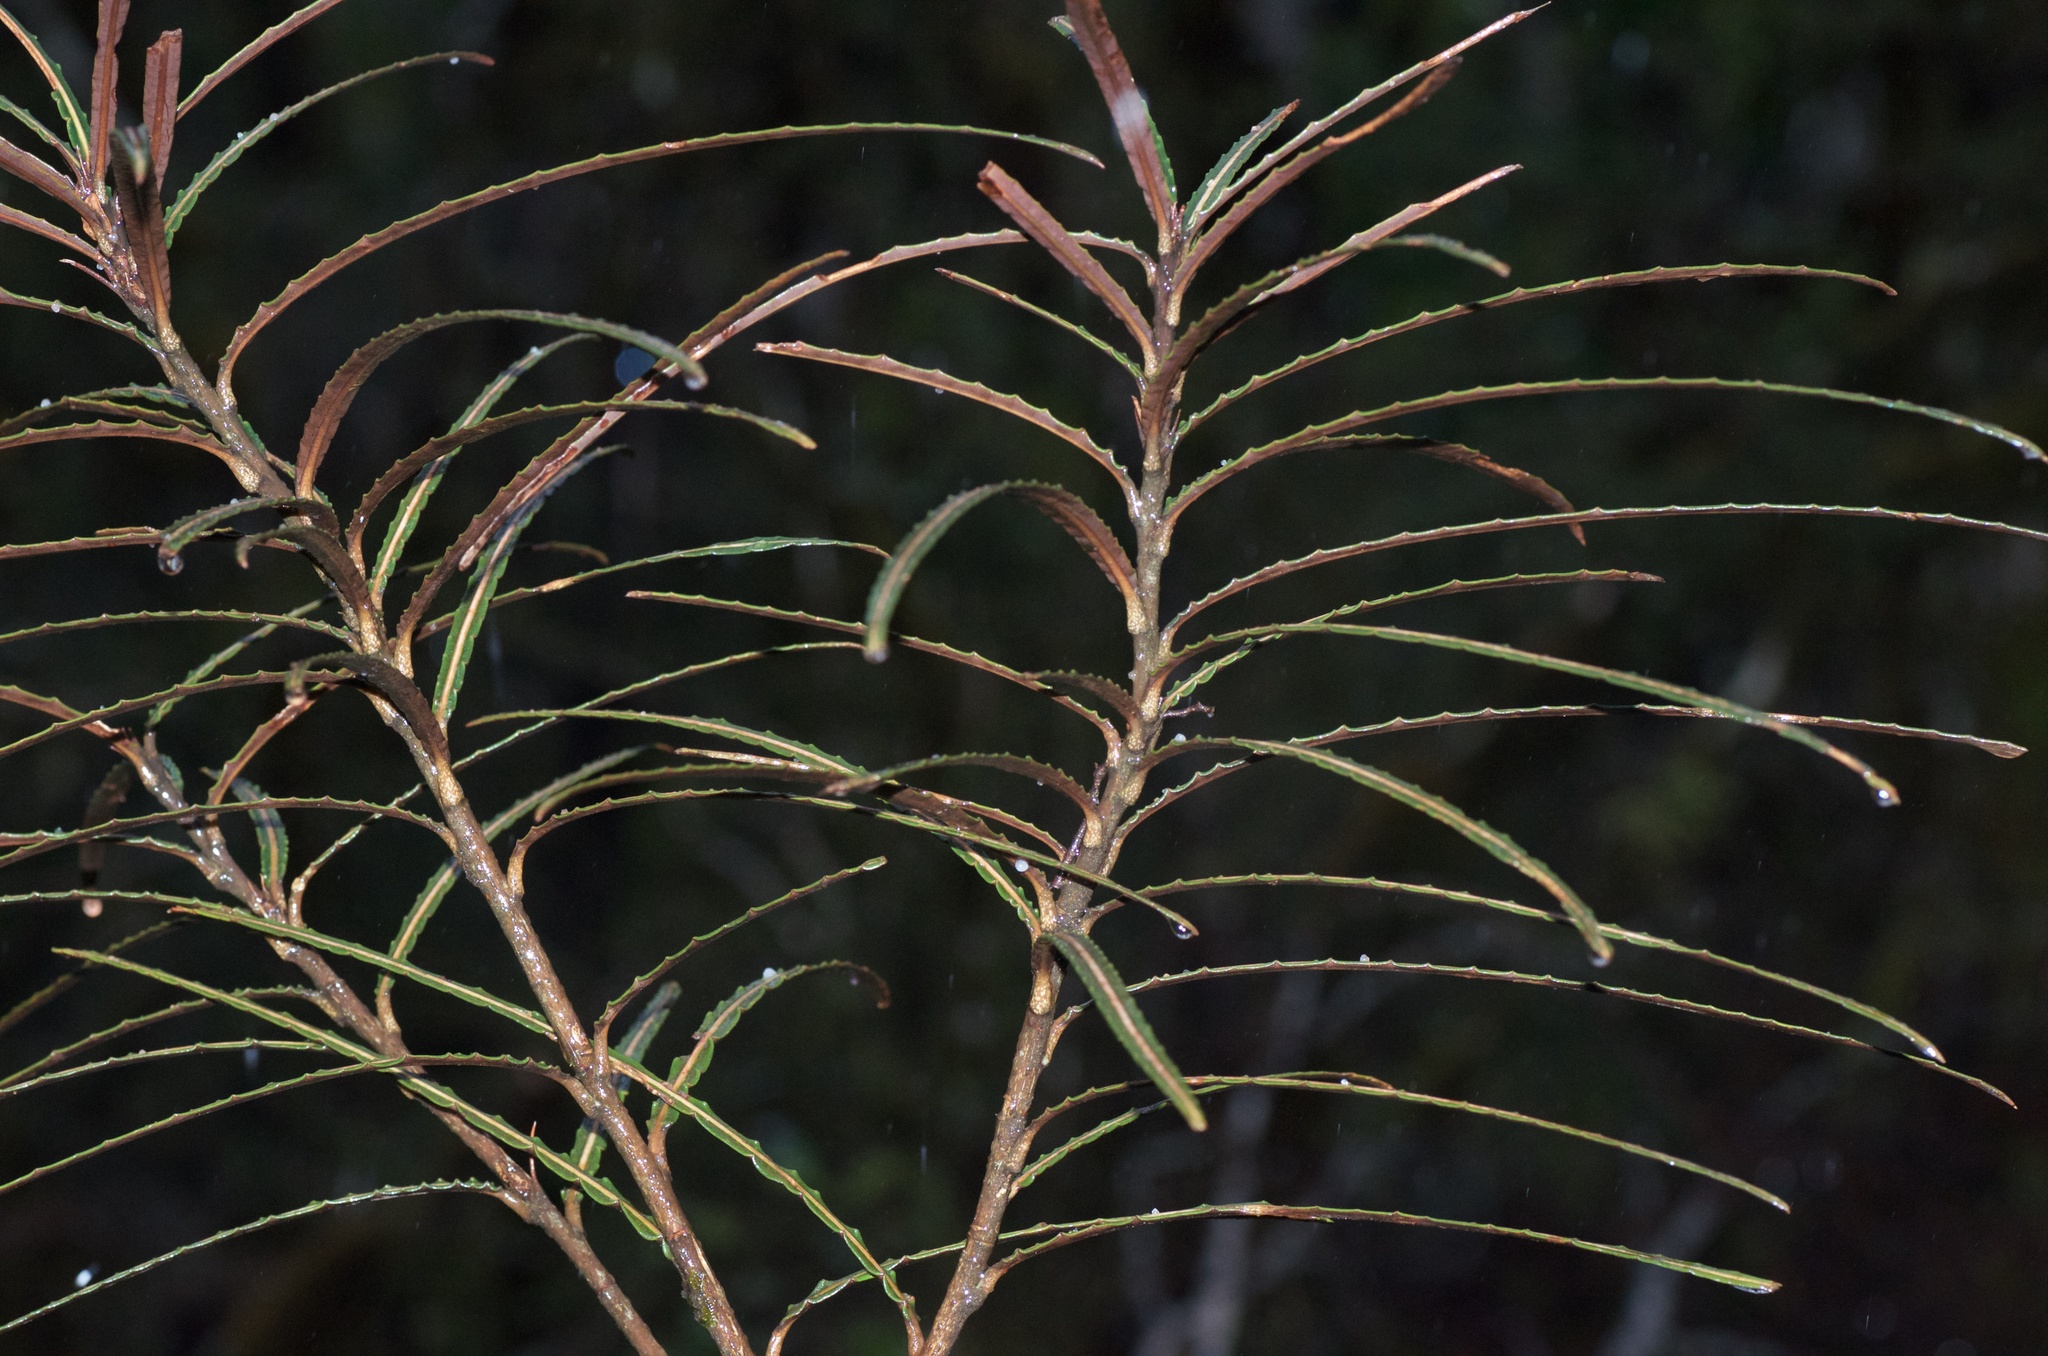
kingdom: Plantae
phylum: Tracheophyta
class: Magnoliopsida
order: Apiales
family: Araliaceae
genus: Pseudopanax
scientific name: Pseudopanax linearis
